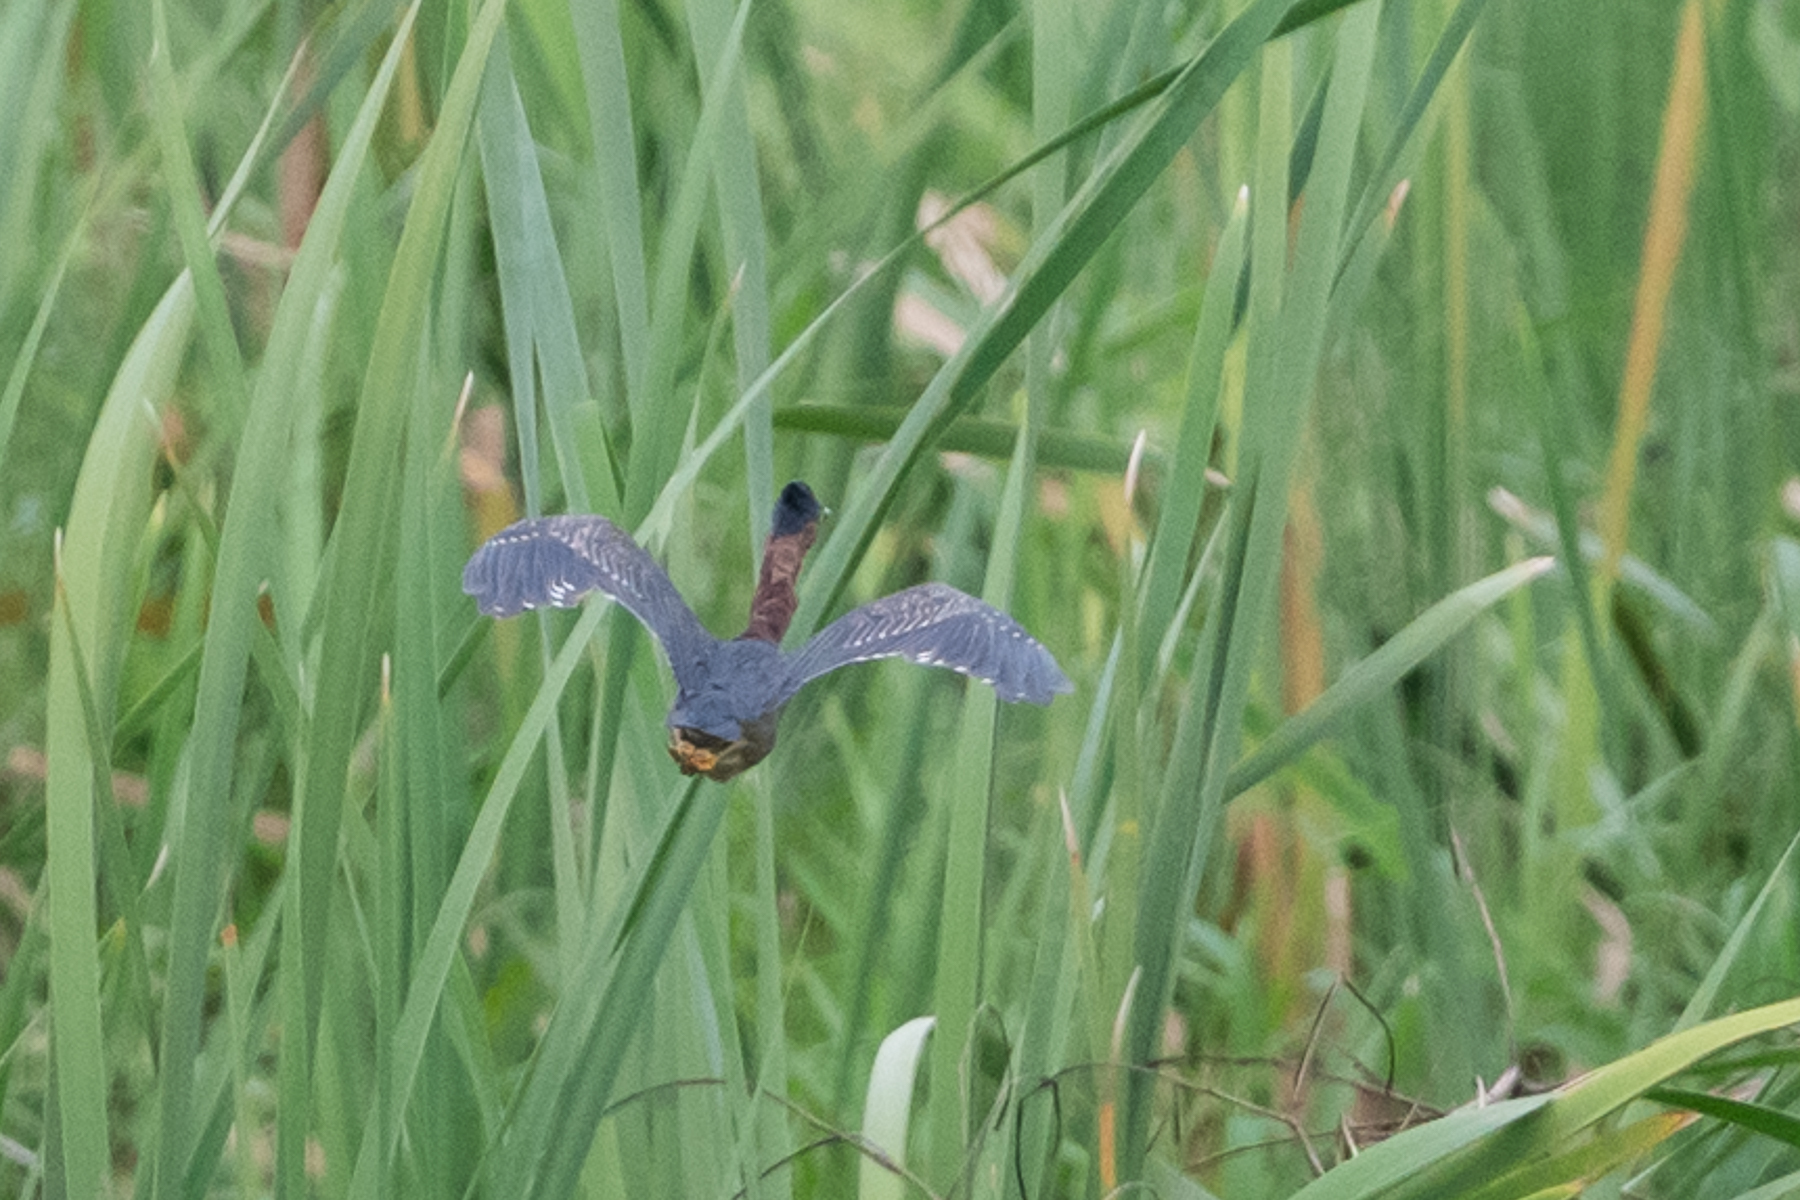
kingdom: Animalia
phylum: Chordata
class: Aves
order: Pelecaniformes
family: Ardeidae
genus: Butorides
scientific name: Butorides virescens
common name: Green heron
